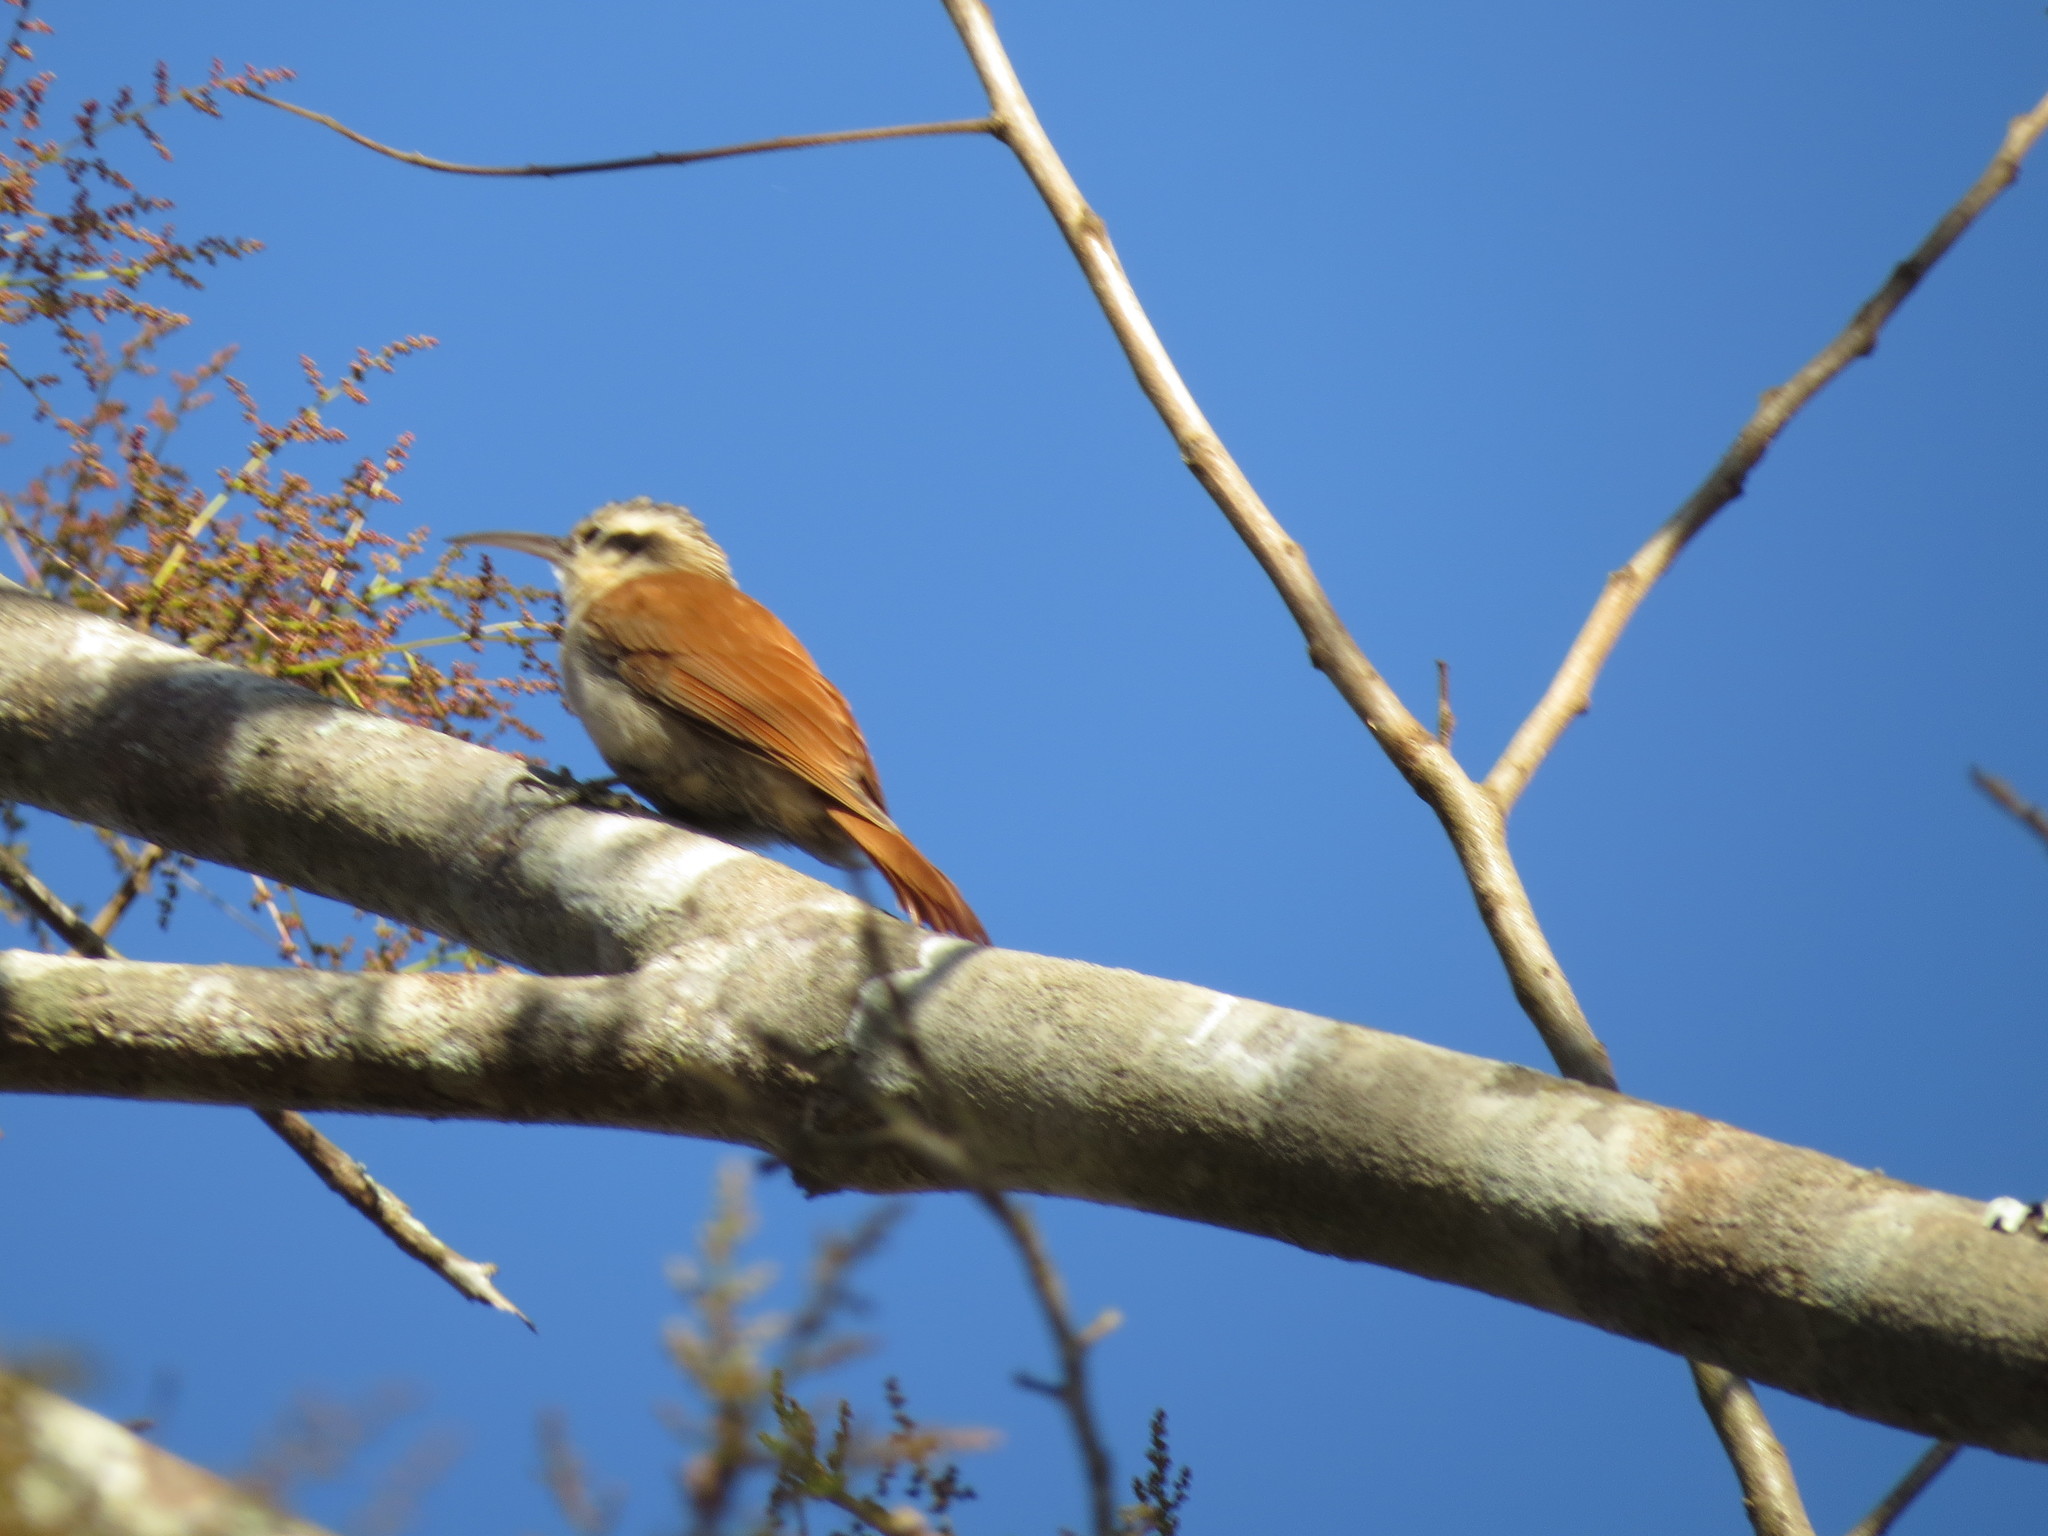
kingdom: Animalia
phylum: Chordata
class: Aves
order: Passeriformes
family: Furnariidae
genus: Lepidocolaptes
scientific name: Lepidocolaptes angustirostris
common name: Narrow-billed woodcreeper
